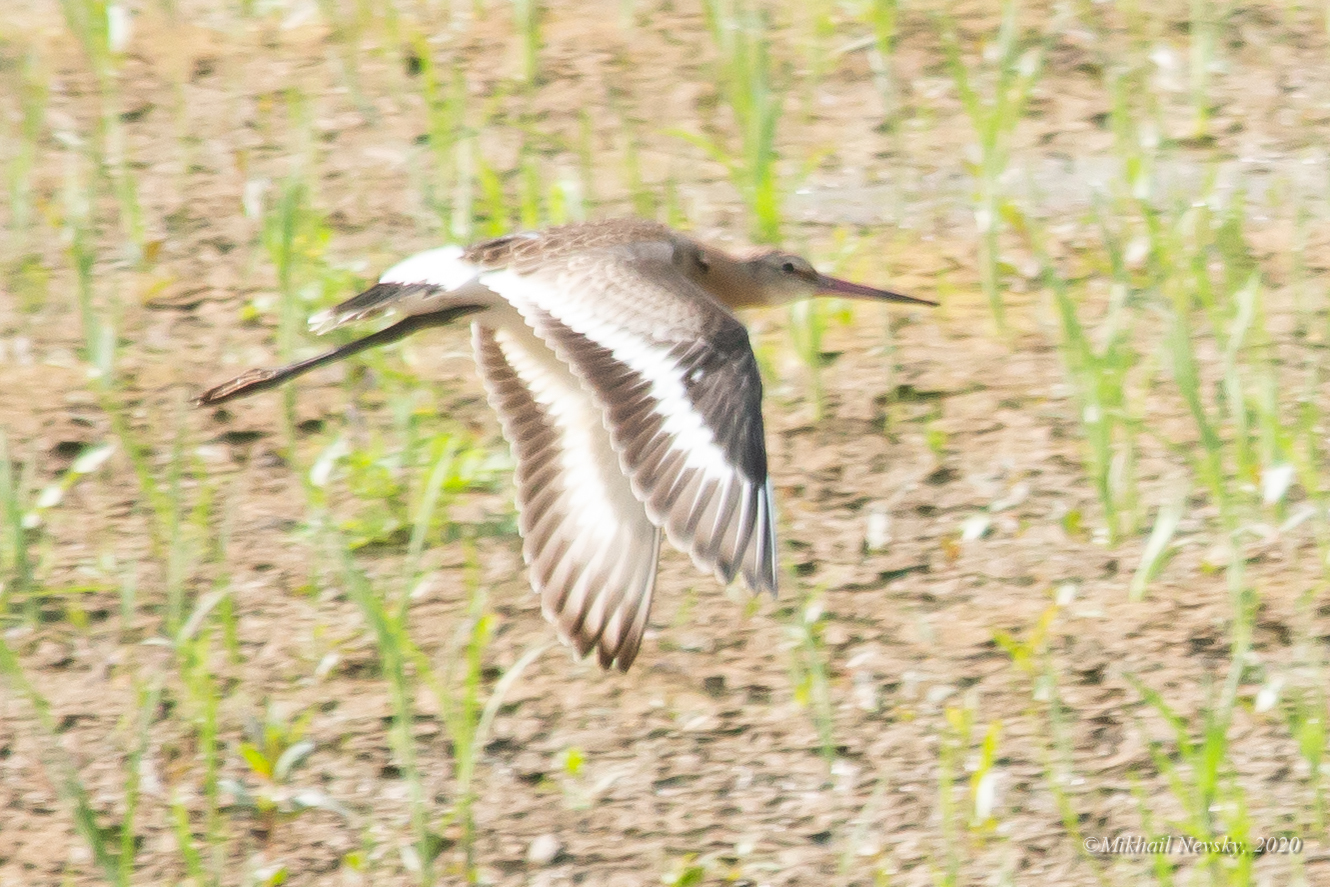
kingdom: Animalia
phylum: Chordata
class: Aves
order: Charadriiformes
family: Scolopacidae
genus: Limosa
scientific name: Limosa limosa
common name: Black-tailed godwit
